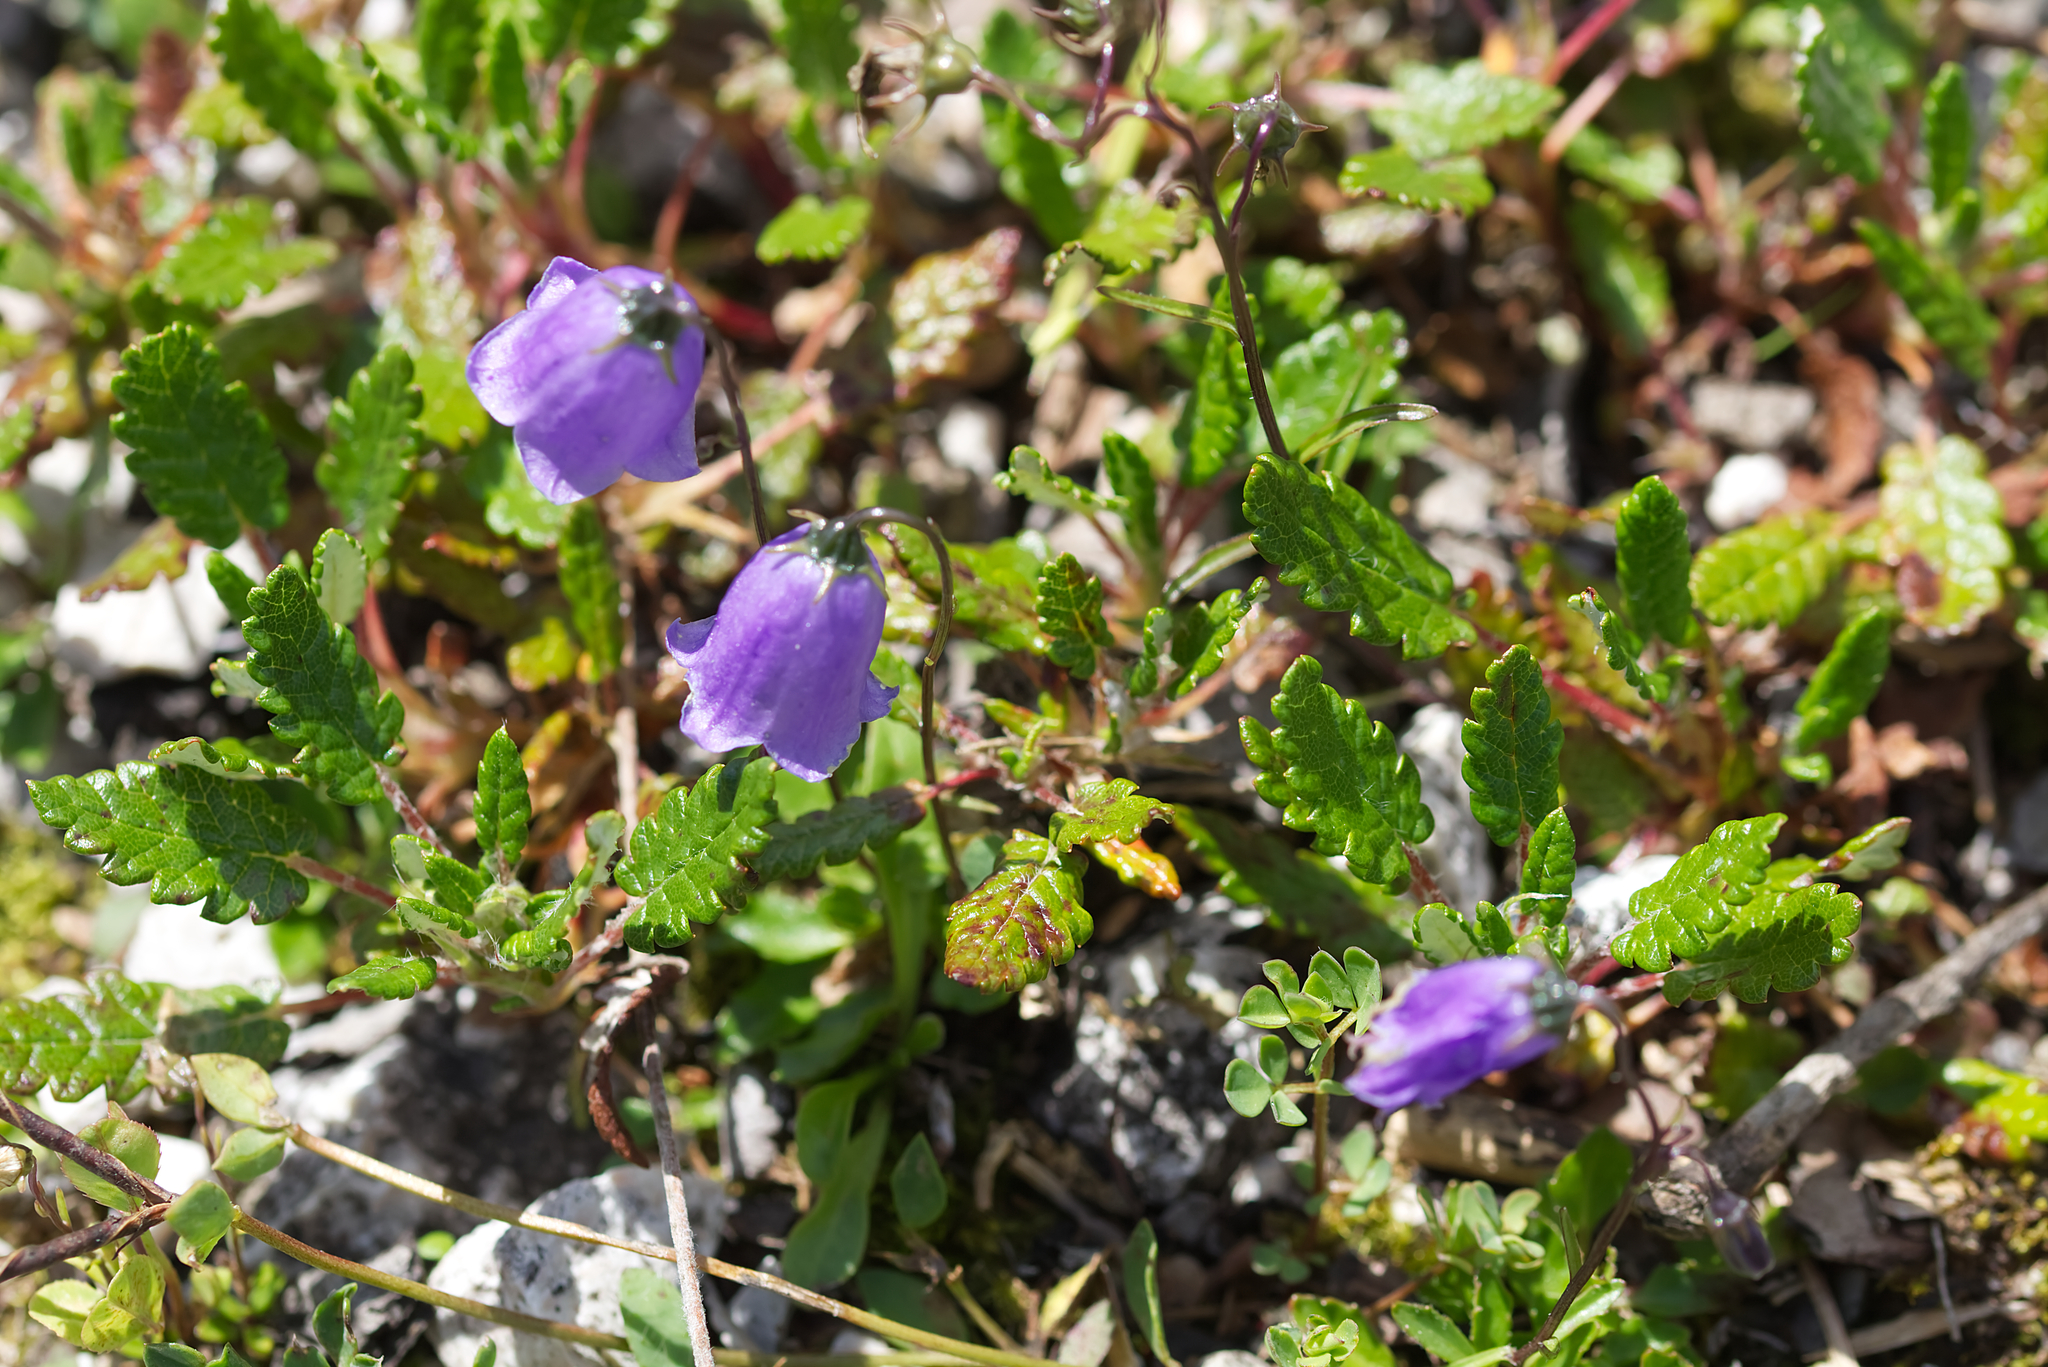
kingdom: Plantae
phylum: Tracheophyta
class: Magnoliopsida
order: Asterales
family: Campanulaceae
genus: Campanula
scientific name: Campanula cochleariifolia
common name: Fairies'-thimbles
